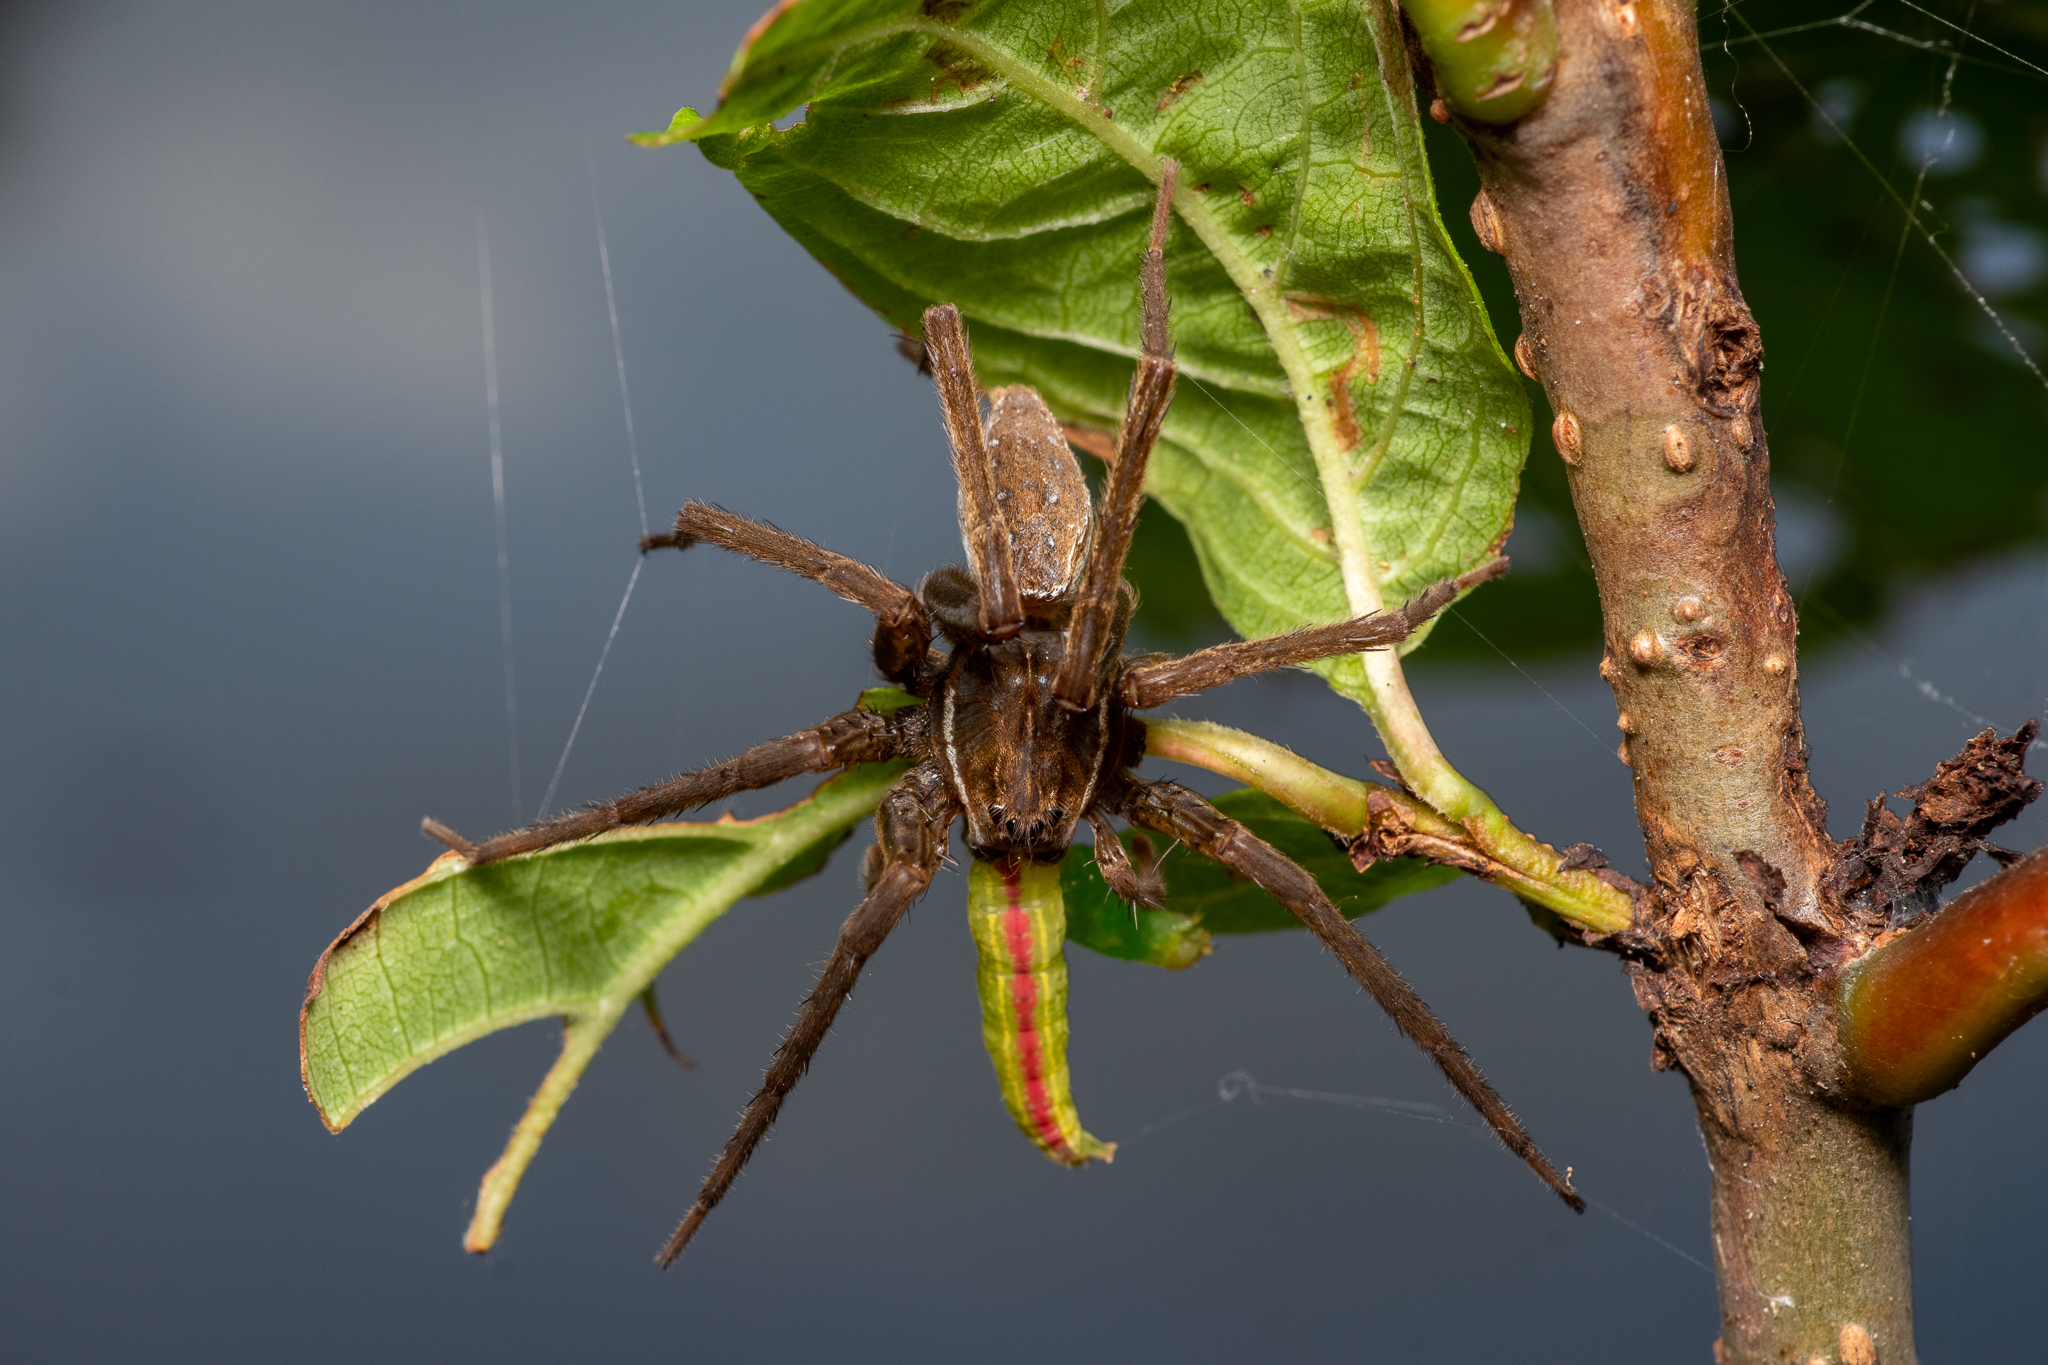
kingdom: Animalia
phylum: Arthropoda
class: Arachnida
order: Araneae
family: Pisauridae
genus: Dolomedes
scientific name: Dolomedes triton
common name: Six-spotted fishing spider
